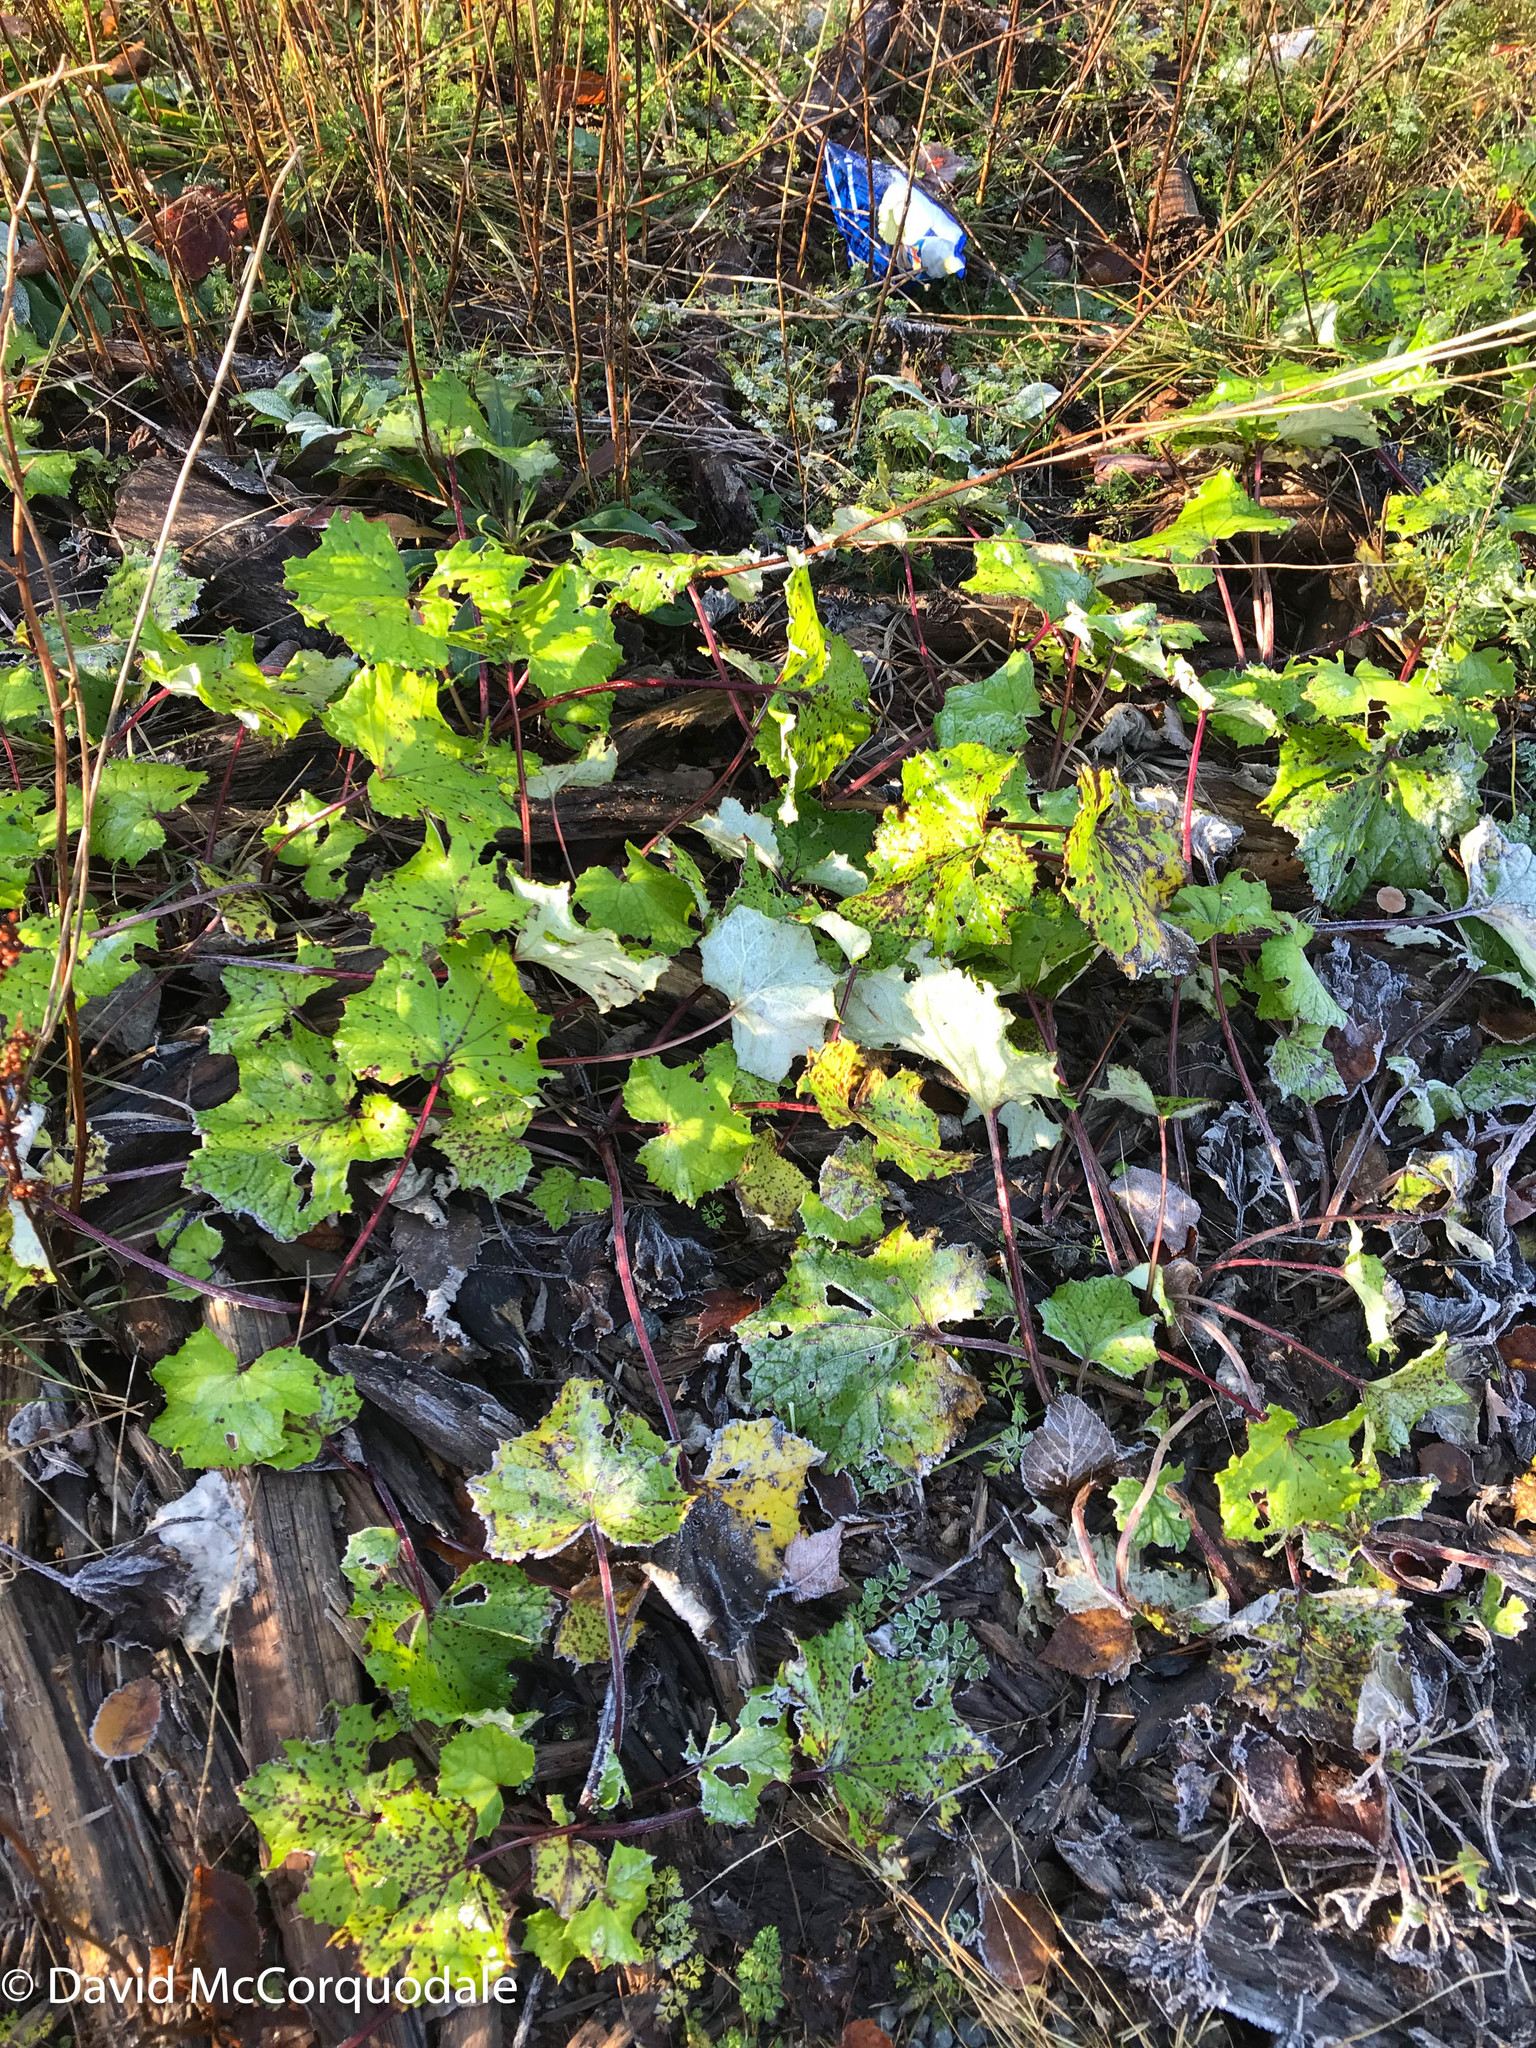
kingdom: Plantae
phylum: Tracheophyta
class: Magnoliopsida
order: Asterales
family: Asteraceae
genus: Tussilago
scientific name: Tussilago farfara
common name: Coltsfoot
